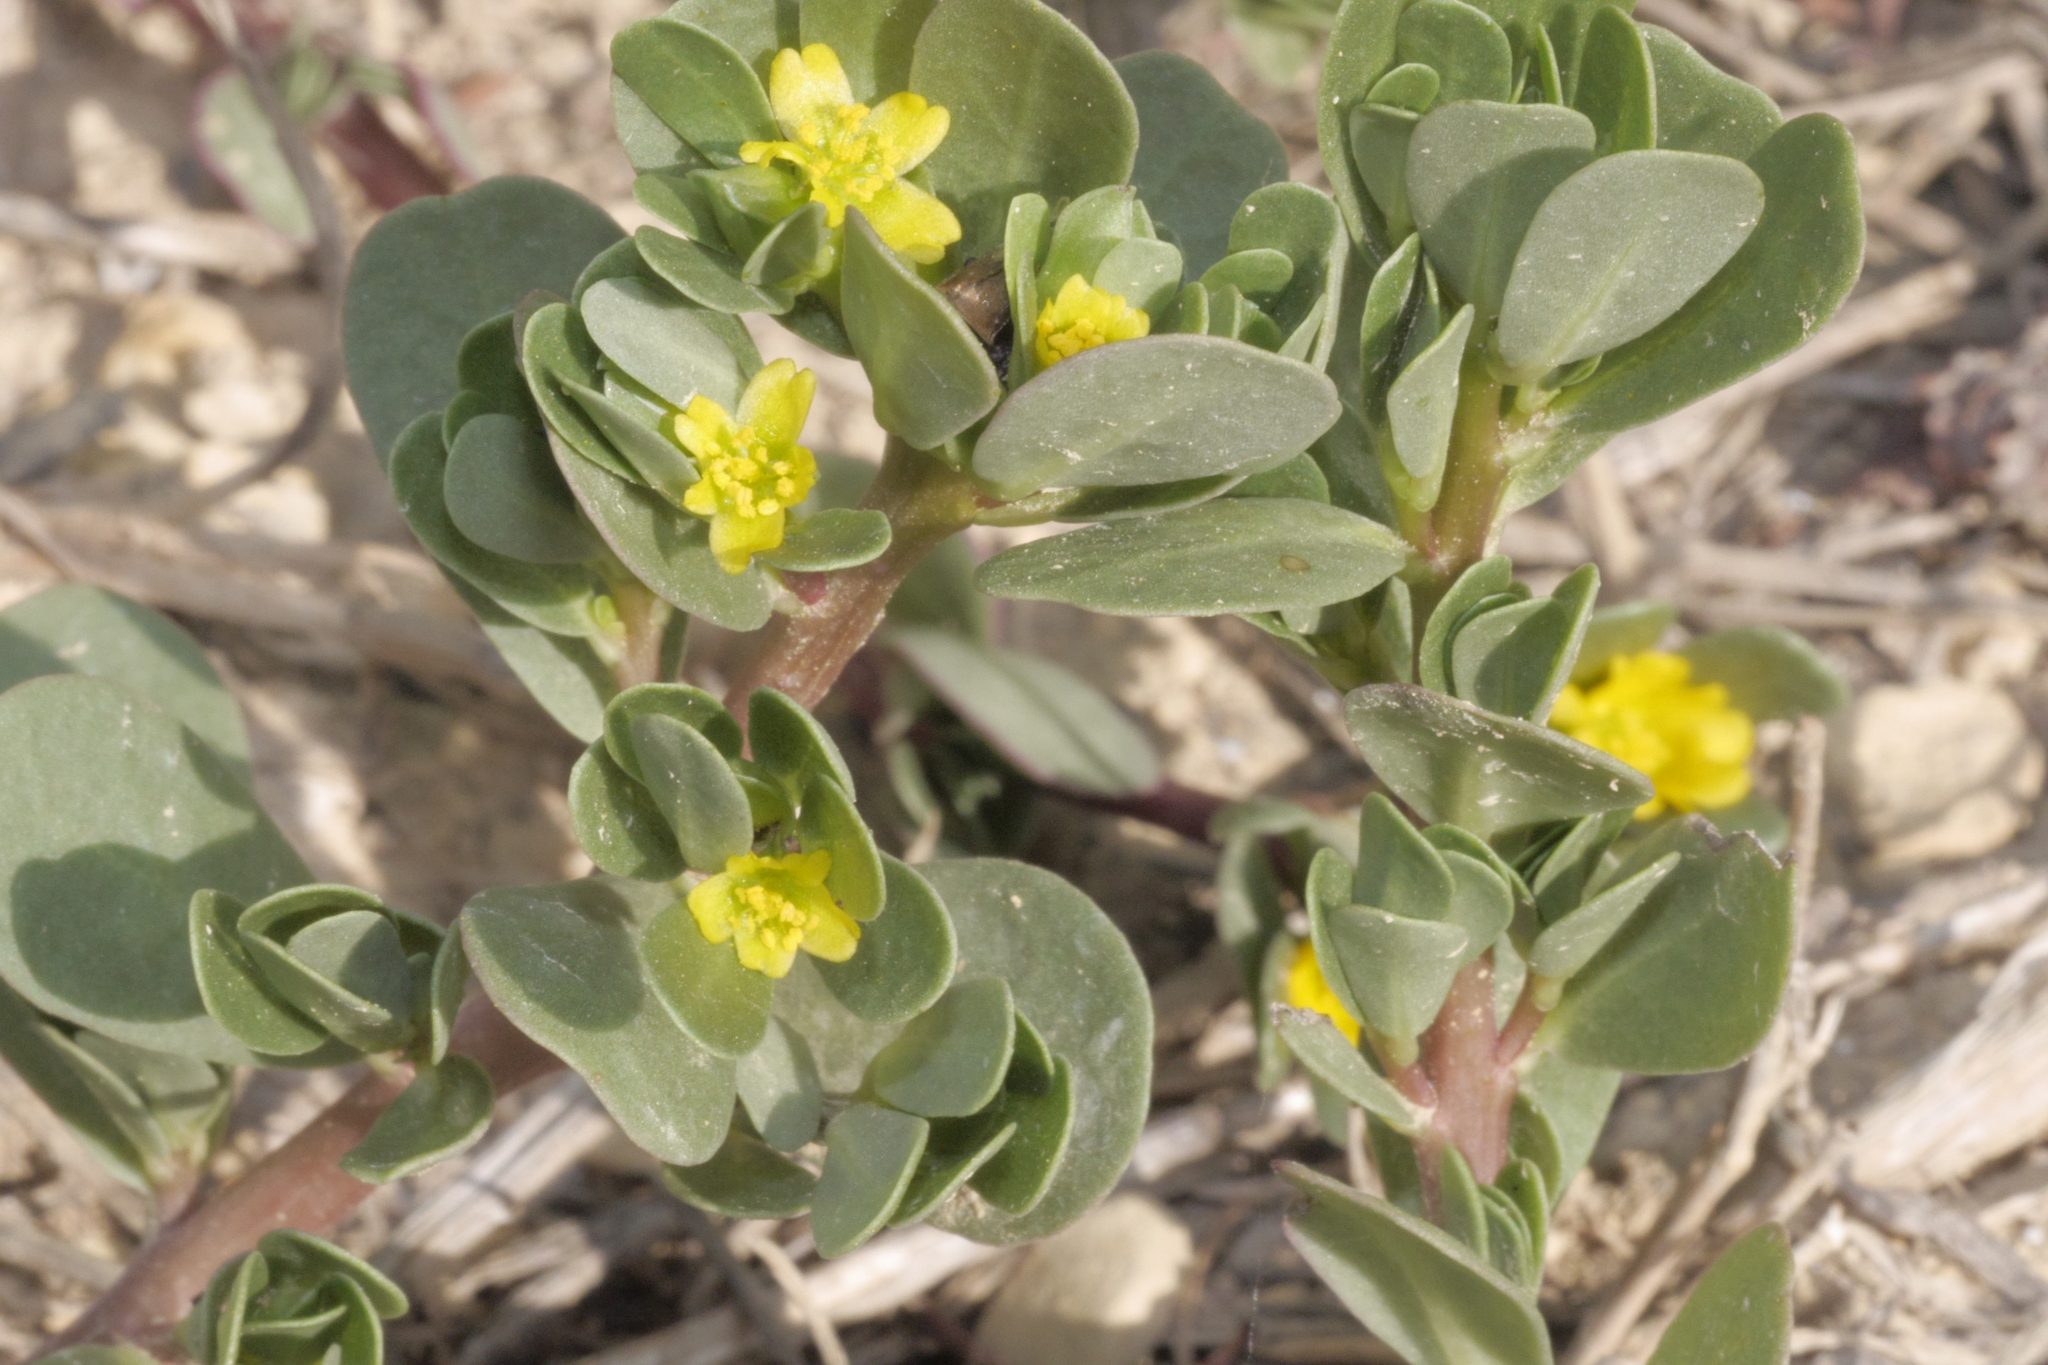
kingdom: Plantae
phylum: Tracheophyta
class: Magnoliopsida
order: Caryophyllales
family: Portulacaceae
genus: Portulaca
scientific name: Portulaca oleracea
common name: Common purslane
